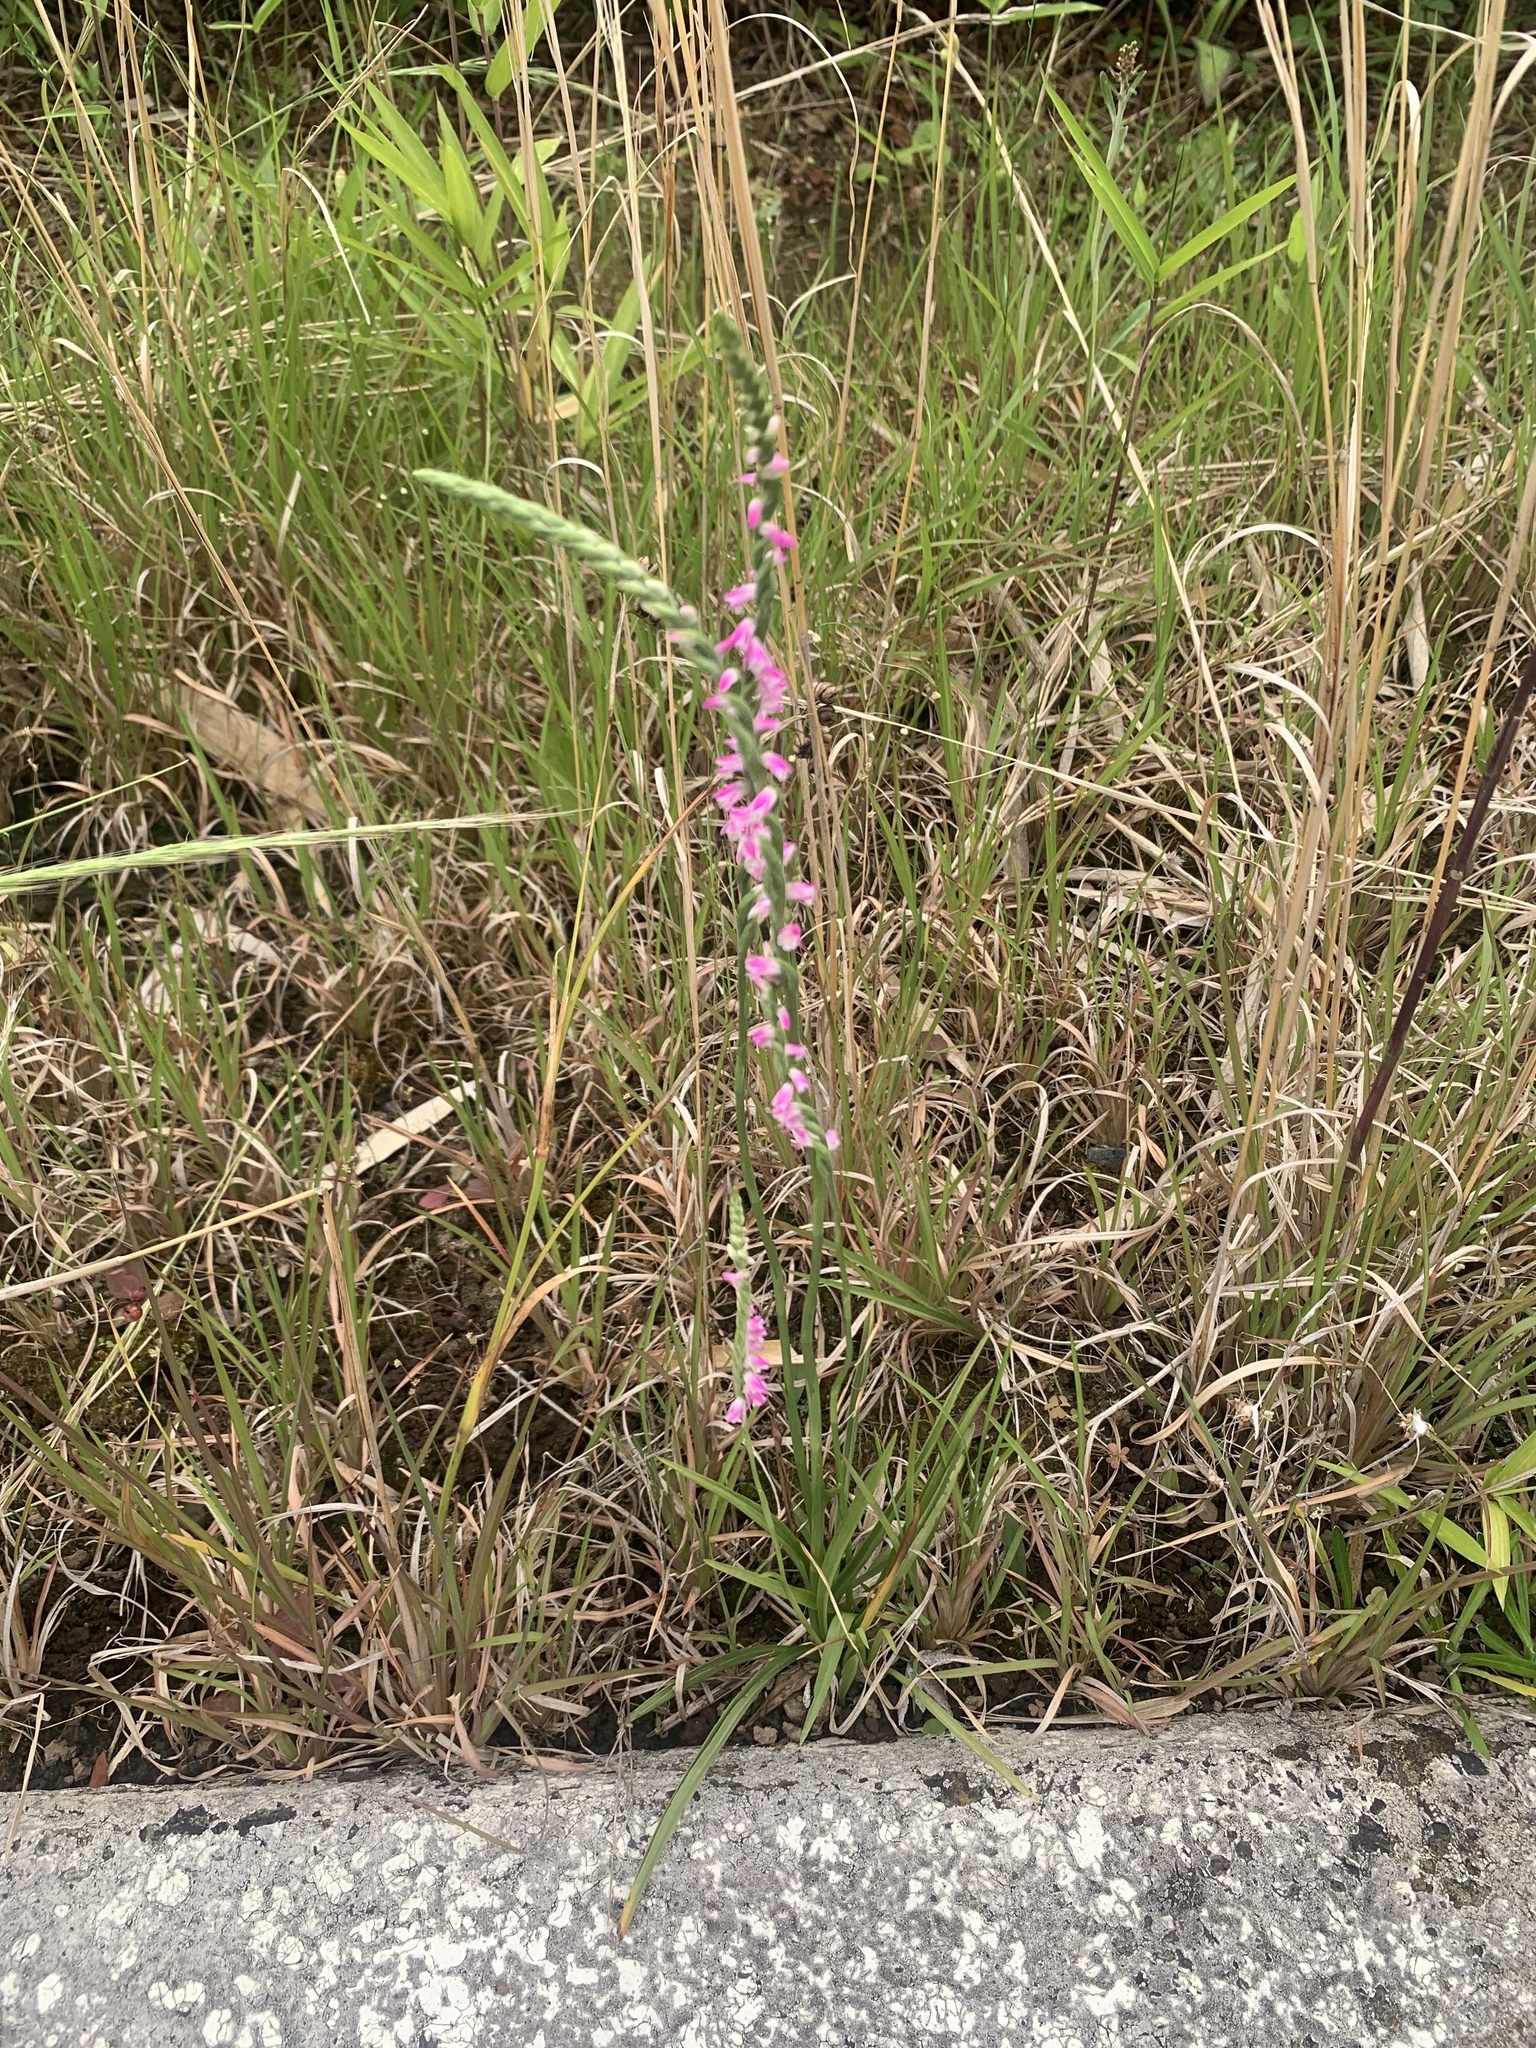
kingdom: Plantae
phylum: Tracheophyta
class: Liliopsida
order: Asparagales
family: Orchidaceae
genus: Spiranthes
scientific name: Spiranthes australis
